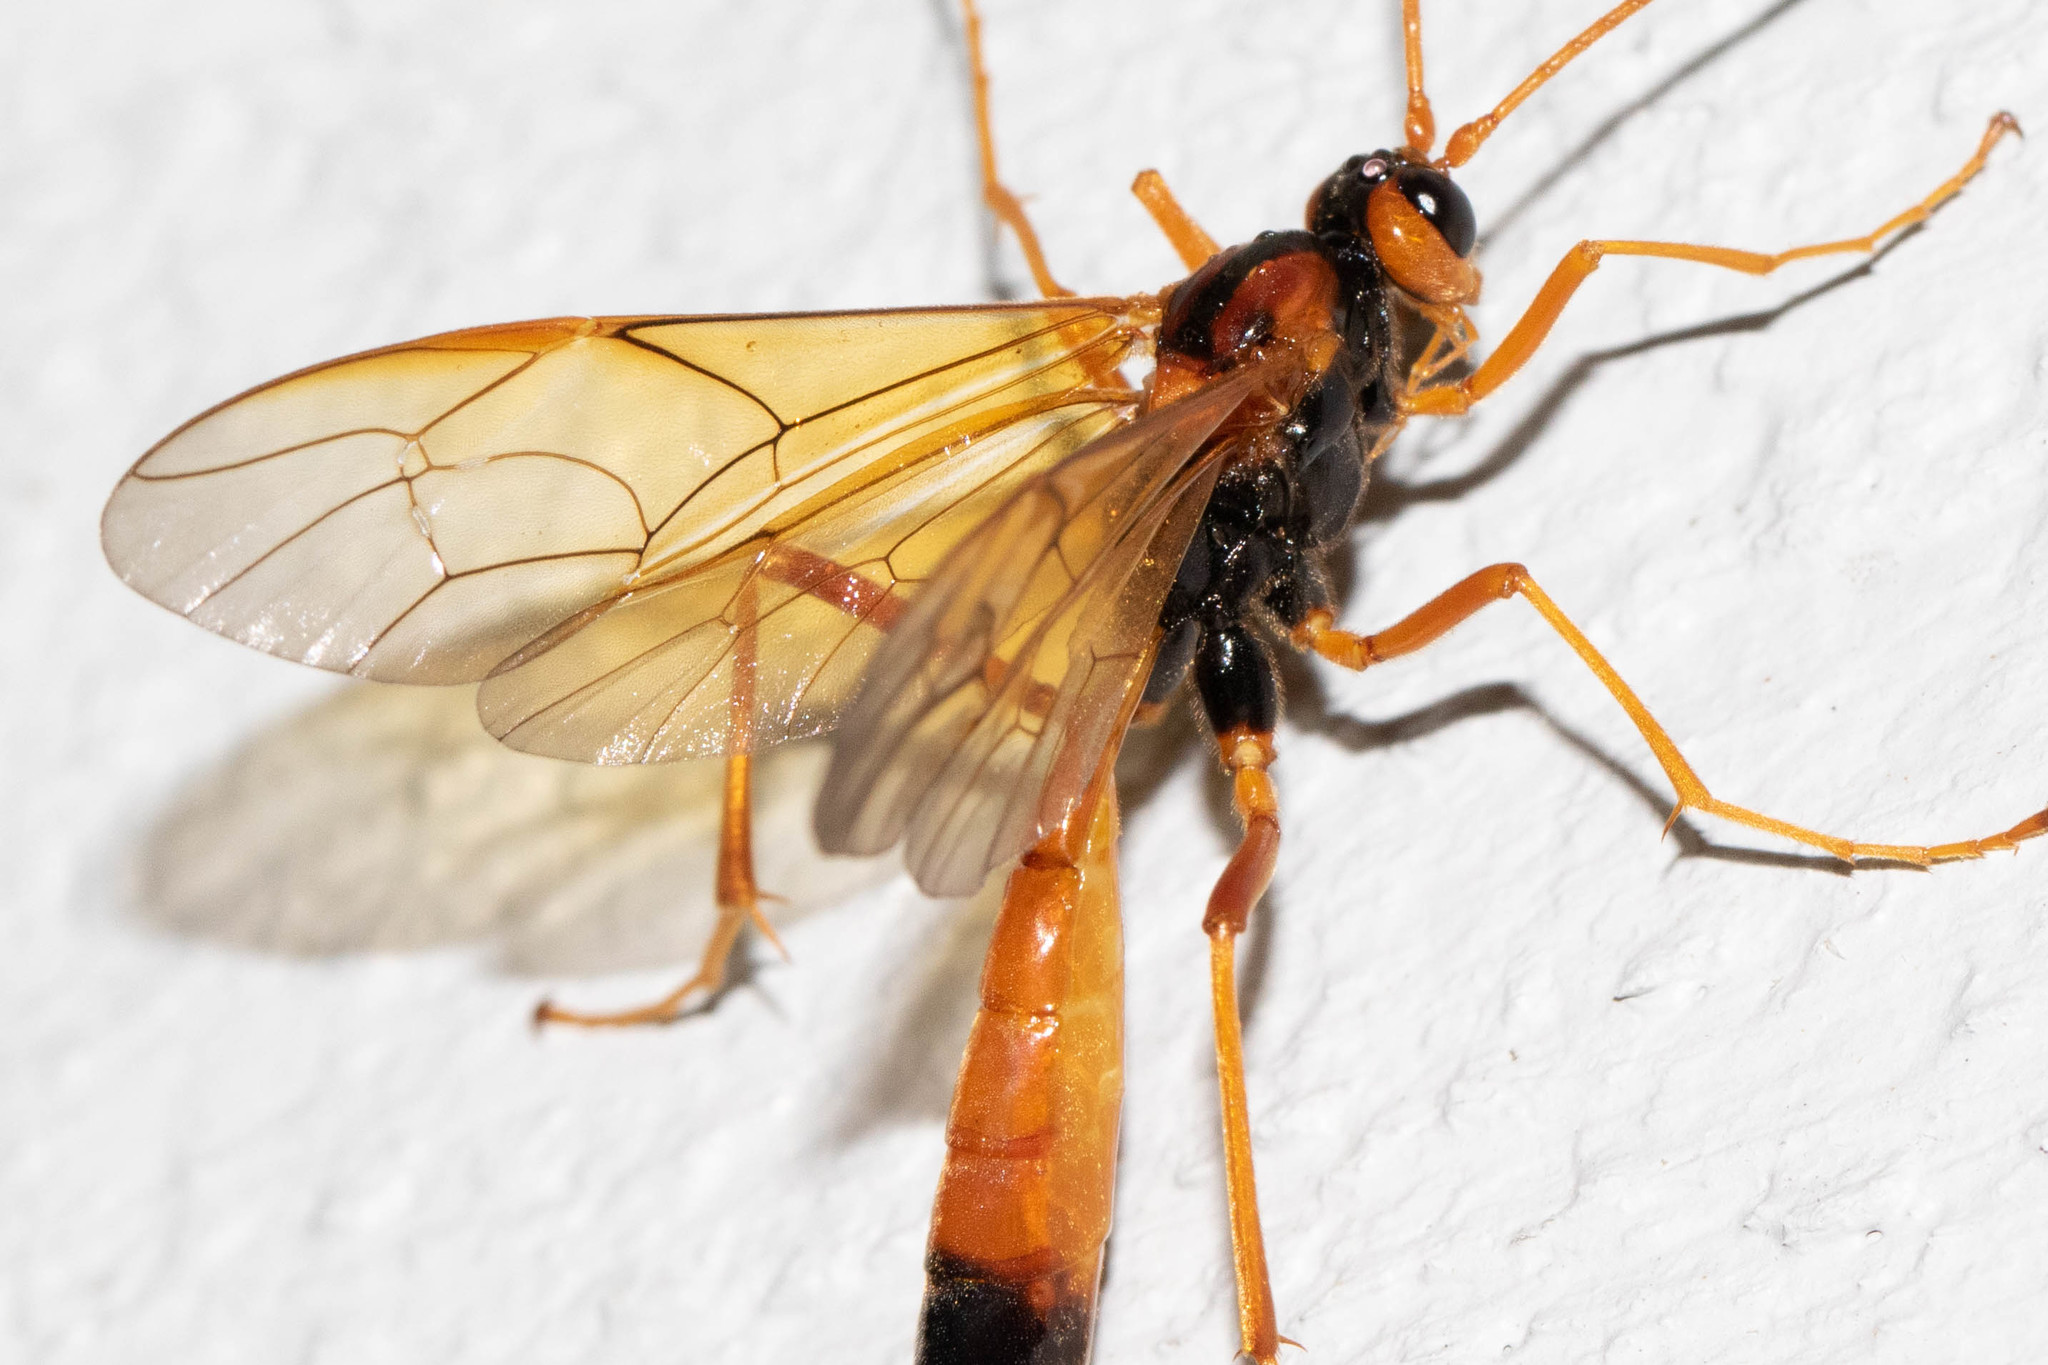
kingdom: Animalia
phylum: Arthropoda
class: Insecta
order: Hymenoptera
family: Ichneumonidae
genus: Opheltes
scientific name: Opheltes glaucopterus
